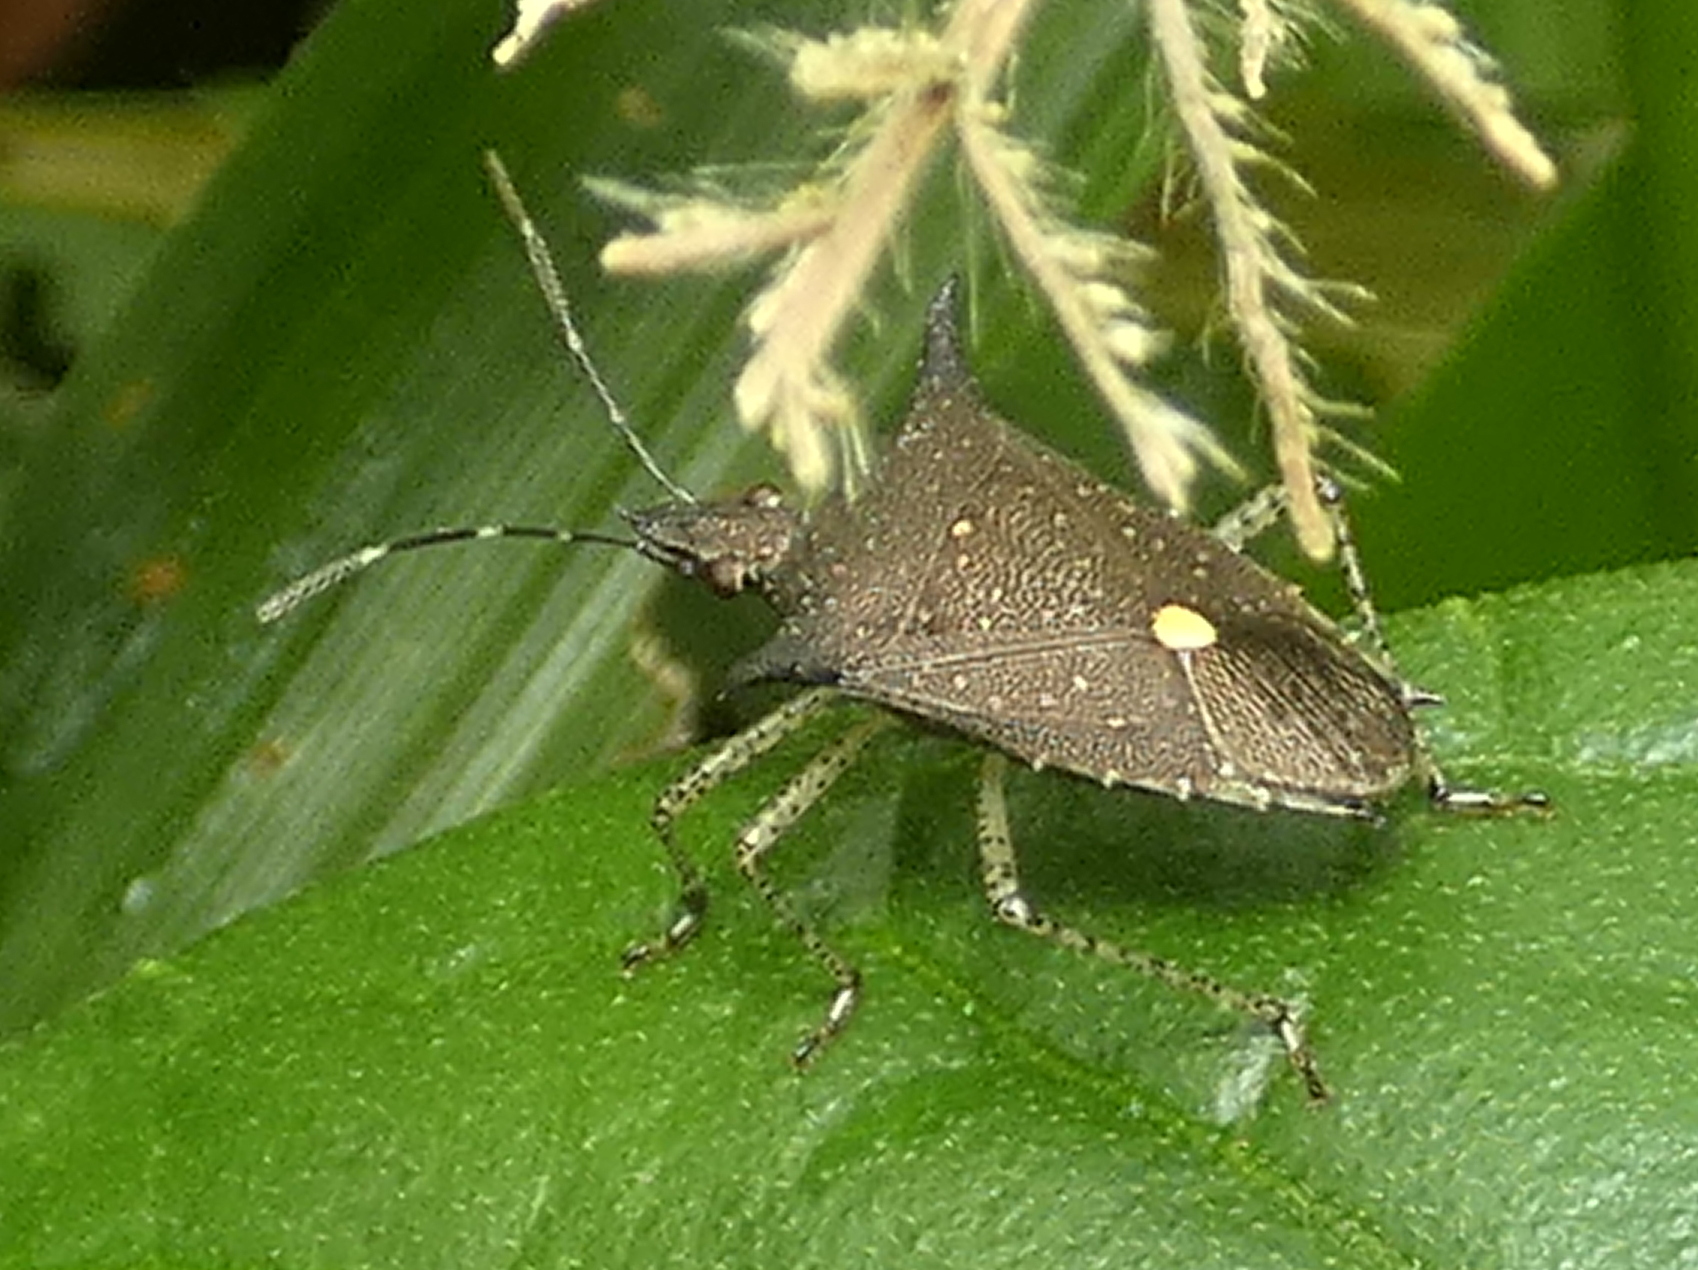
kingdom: Animalia
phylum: Arthropoda
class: Insecta
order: Hemiptera
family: Pentatomidae
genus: Proxys
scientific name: Proxys albopunctulatus
